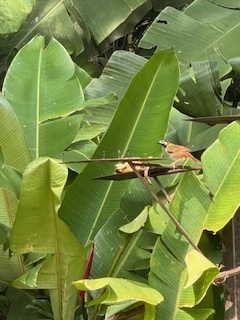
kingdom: Animalia
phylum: Chordata
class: Aves
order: Passeriformes
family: Passerellidae
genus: Melozone
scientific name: Melozone leucotis
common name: White-eared ground-sparrow
